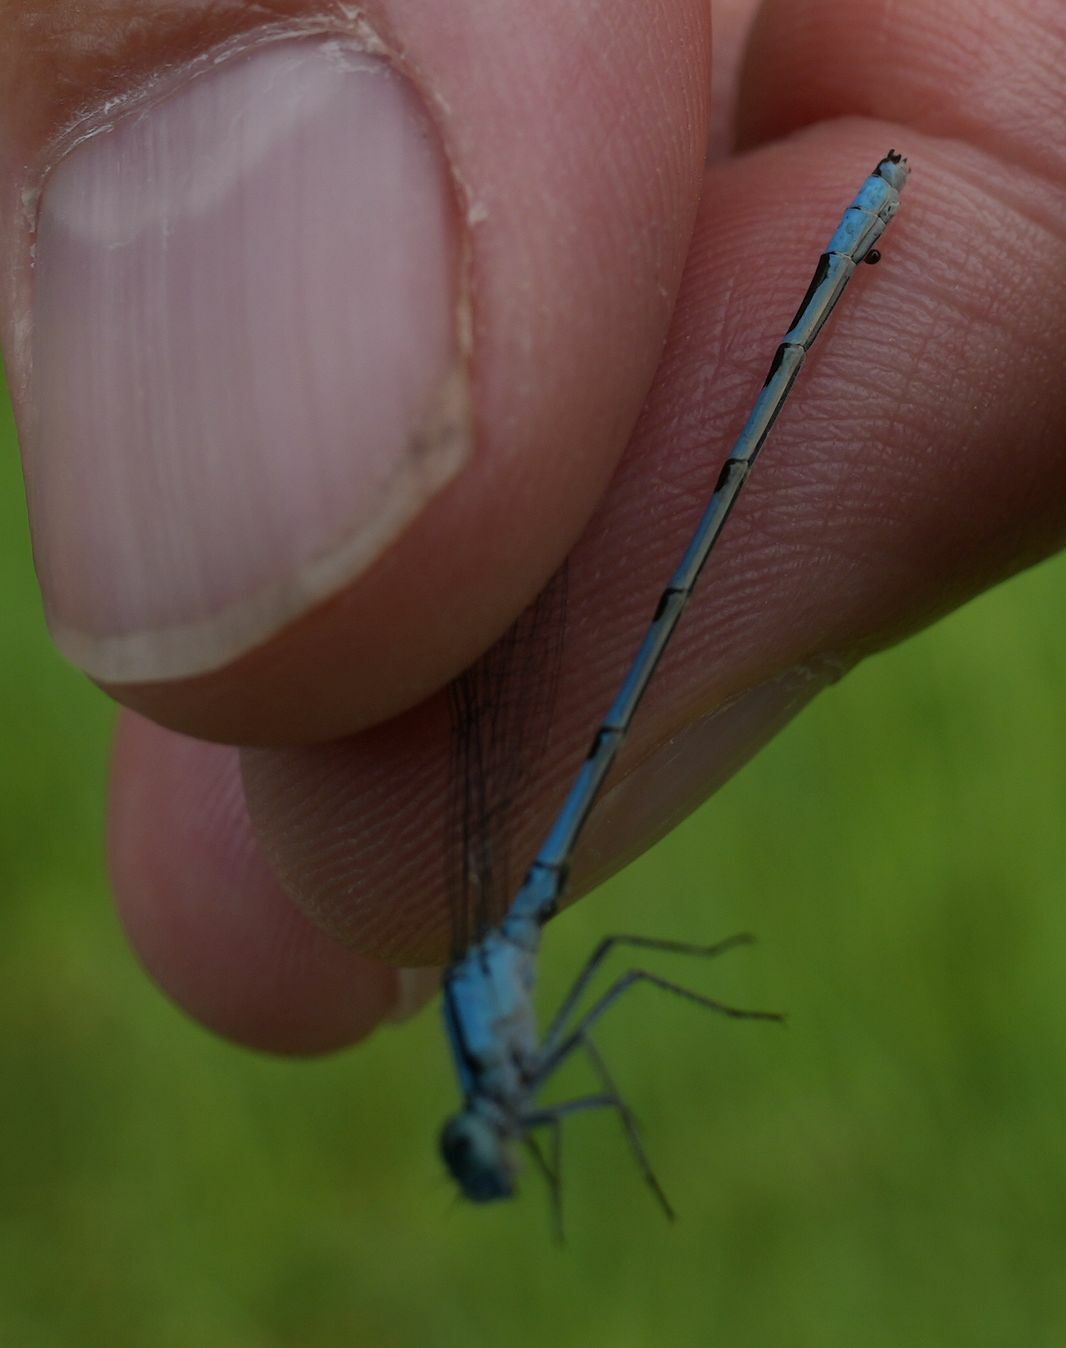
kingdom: Animalia
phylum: Arthropoda
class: Insecta
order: Odonata
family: Coenagrionidae
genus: Enallagma
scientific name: Enallagma ebrium
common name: Marsh bluet
